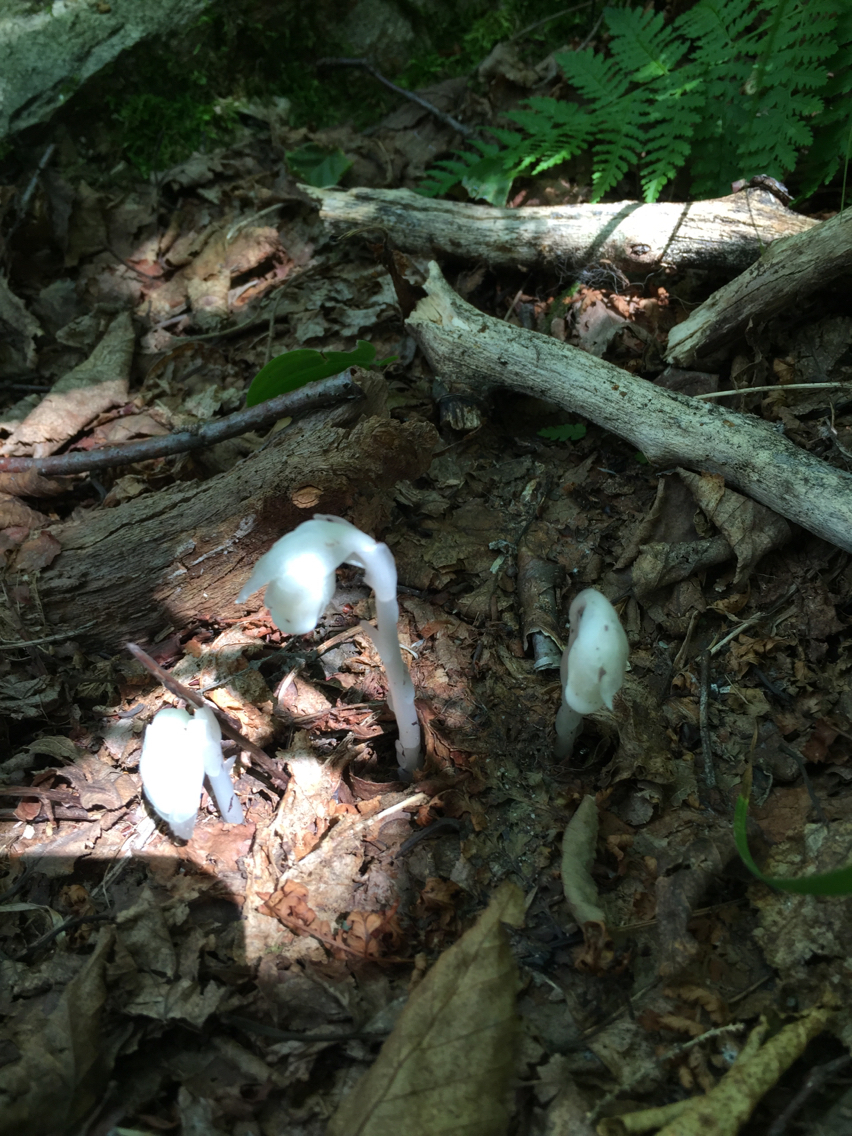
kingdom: Plantae
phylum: Tracheophyta
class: Magnoliopsida
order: Ericales
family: Ericaceae
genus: Monotropa
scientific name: Monotropa uniflora
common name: Convulsion root
